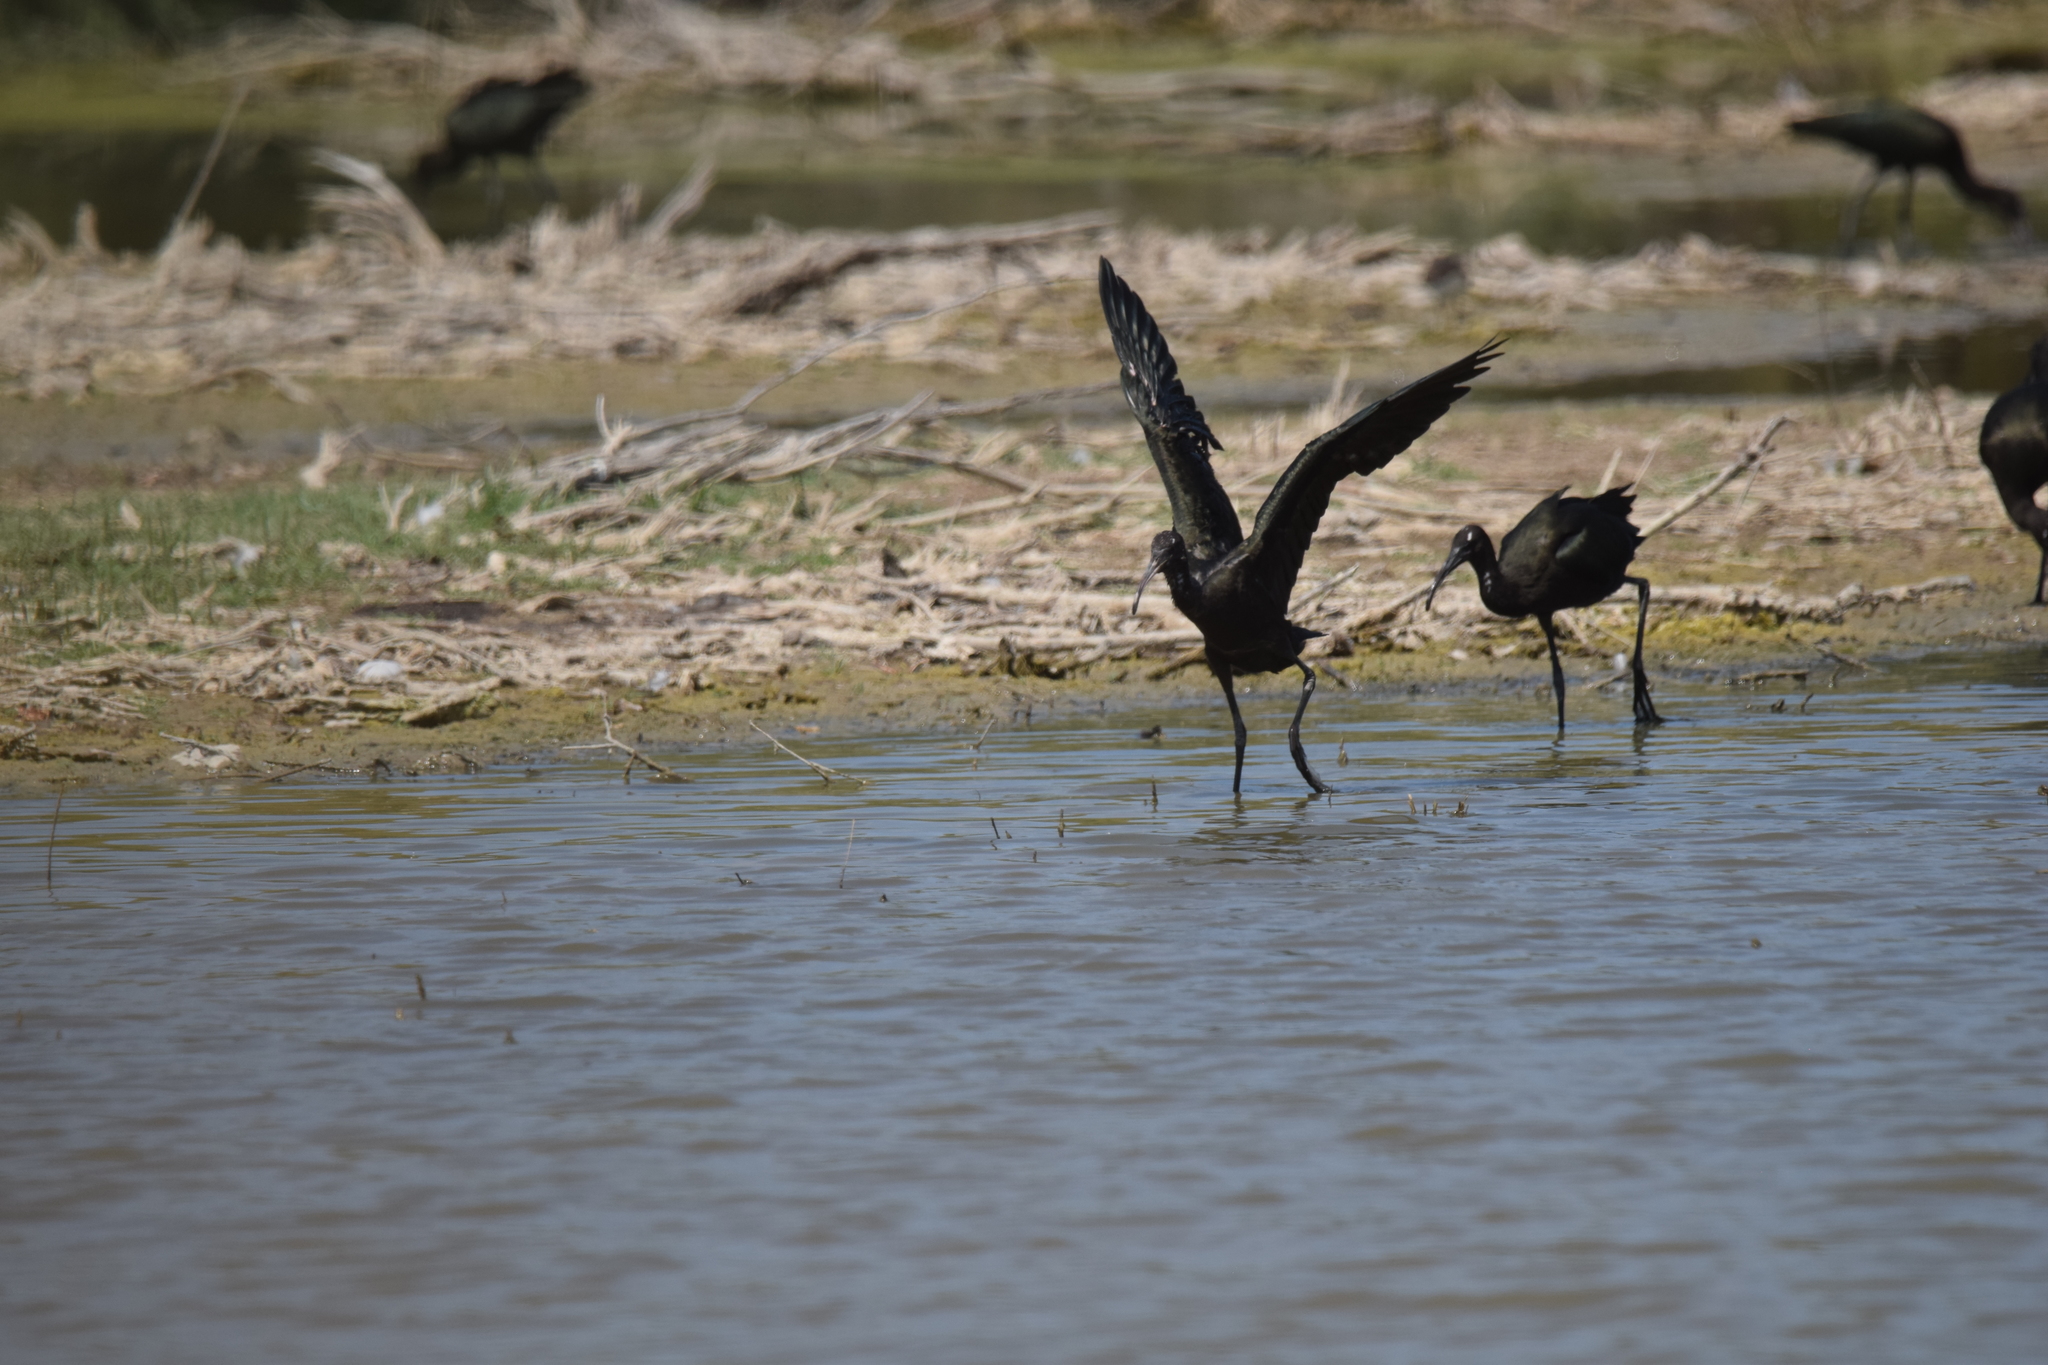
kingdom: Animalia
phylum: Chordata
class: Aves
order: Pelecaniformes
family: Threskiornithidae
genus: Plegadis
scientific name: Plegadis falcinellus
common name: Glossy ibis
